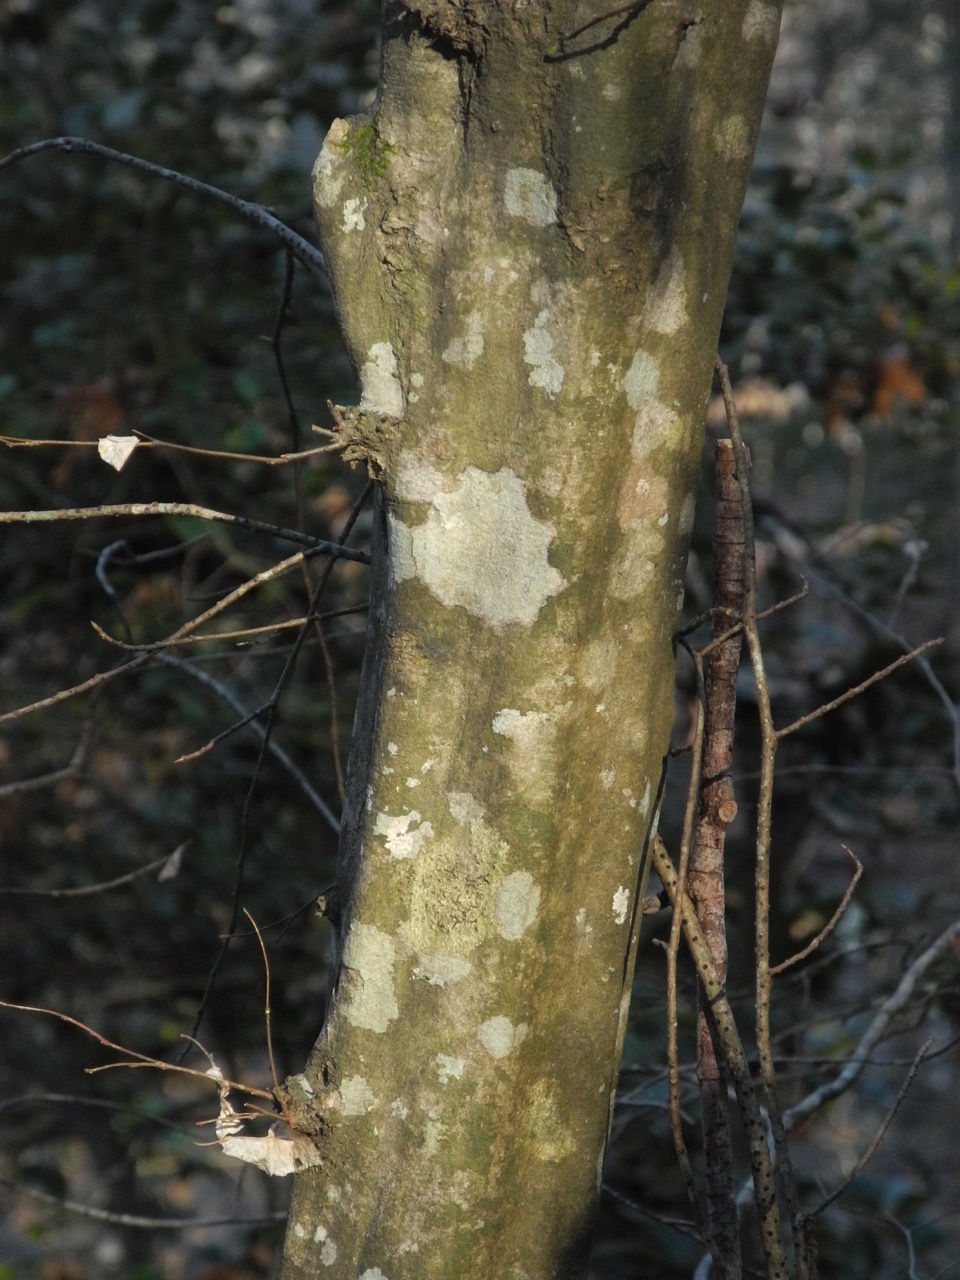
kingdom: Plantae
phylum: Tracheophyta
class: Magnoliopsida
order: Fagales
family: Betulaceae
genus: Carpinus
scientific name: Carpinus caroliniana
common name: American hornbeam
